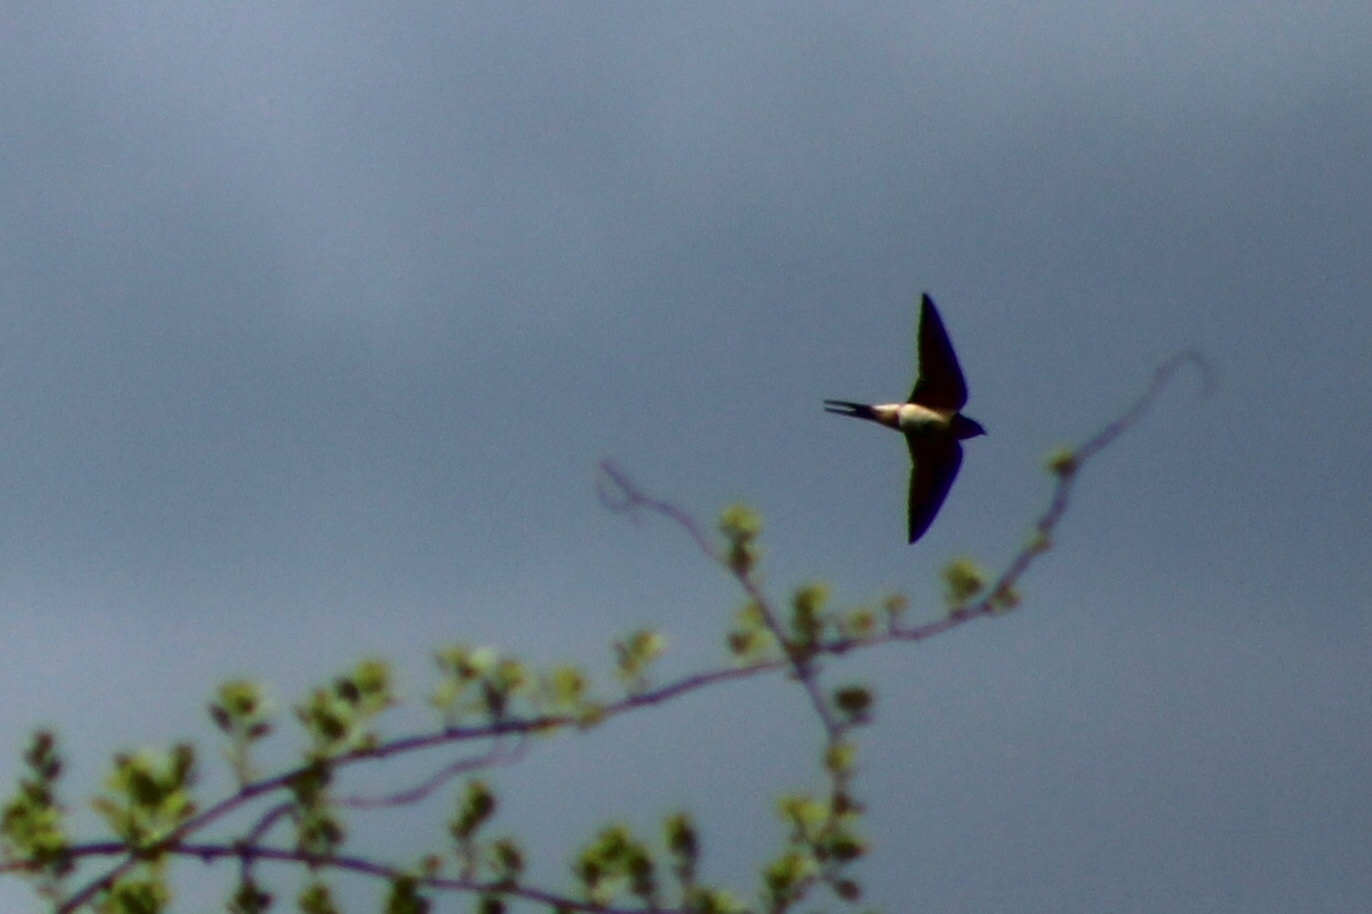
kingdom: Animalia
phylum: Chordata
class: Aves
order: Passeriformes
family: Hirundinidae
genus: Hirundo
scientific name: Hirundo rustica
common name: Barn swallow
